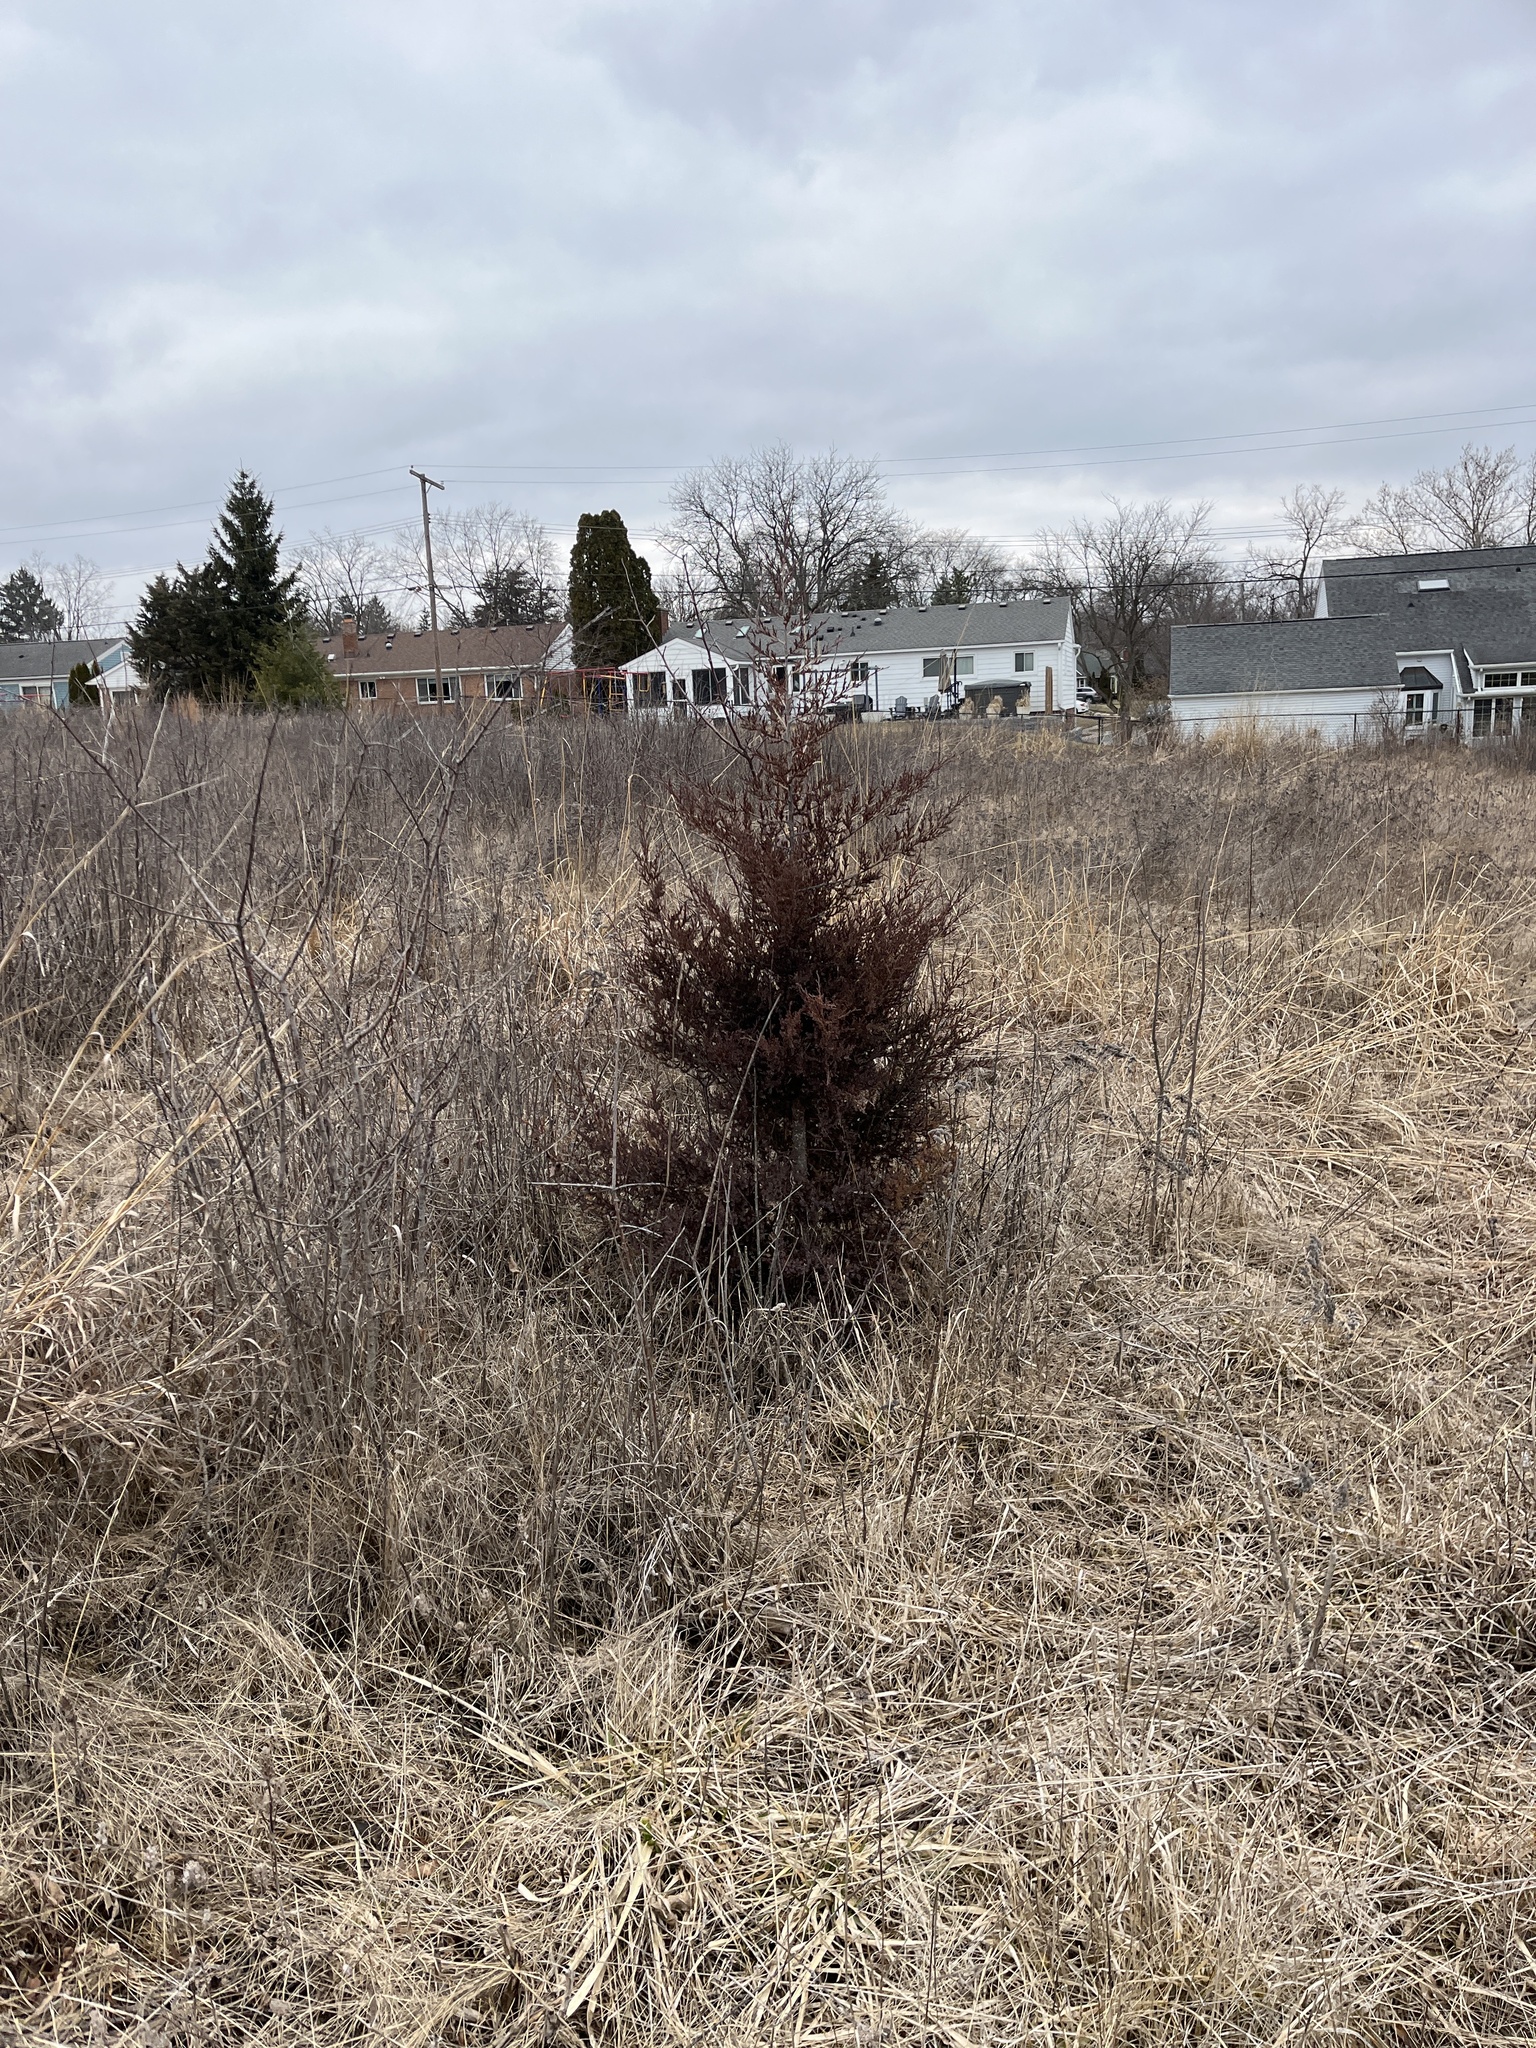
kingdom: Plantae
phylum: Tracheophyta
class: Pinopsida
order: Pinales
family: Cupressaceae
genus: Juniperus
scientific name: Juniperus virginiana
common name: Red juniper
